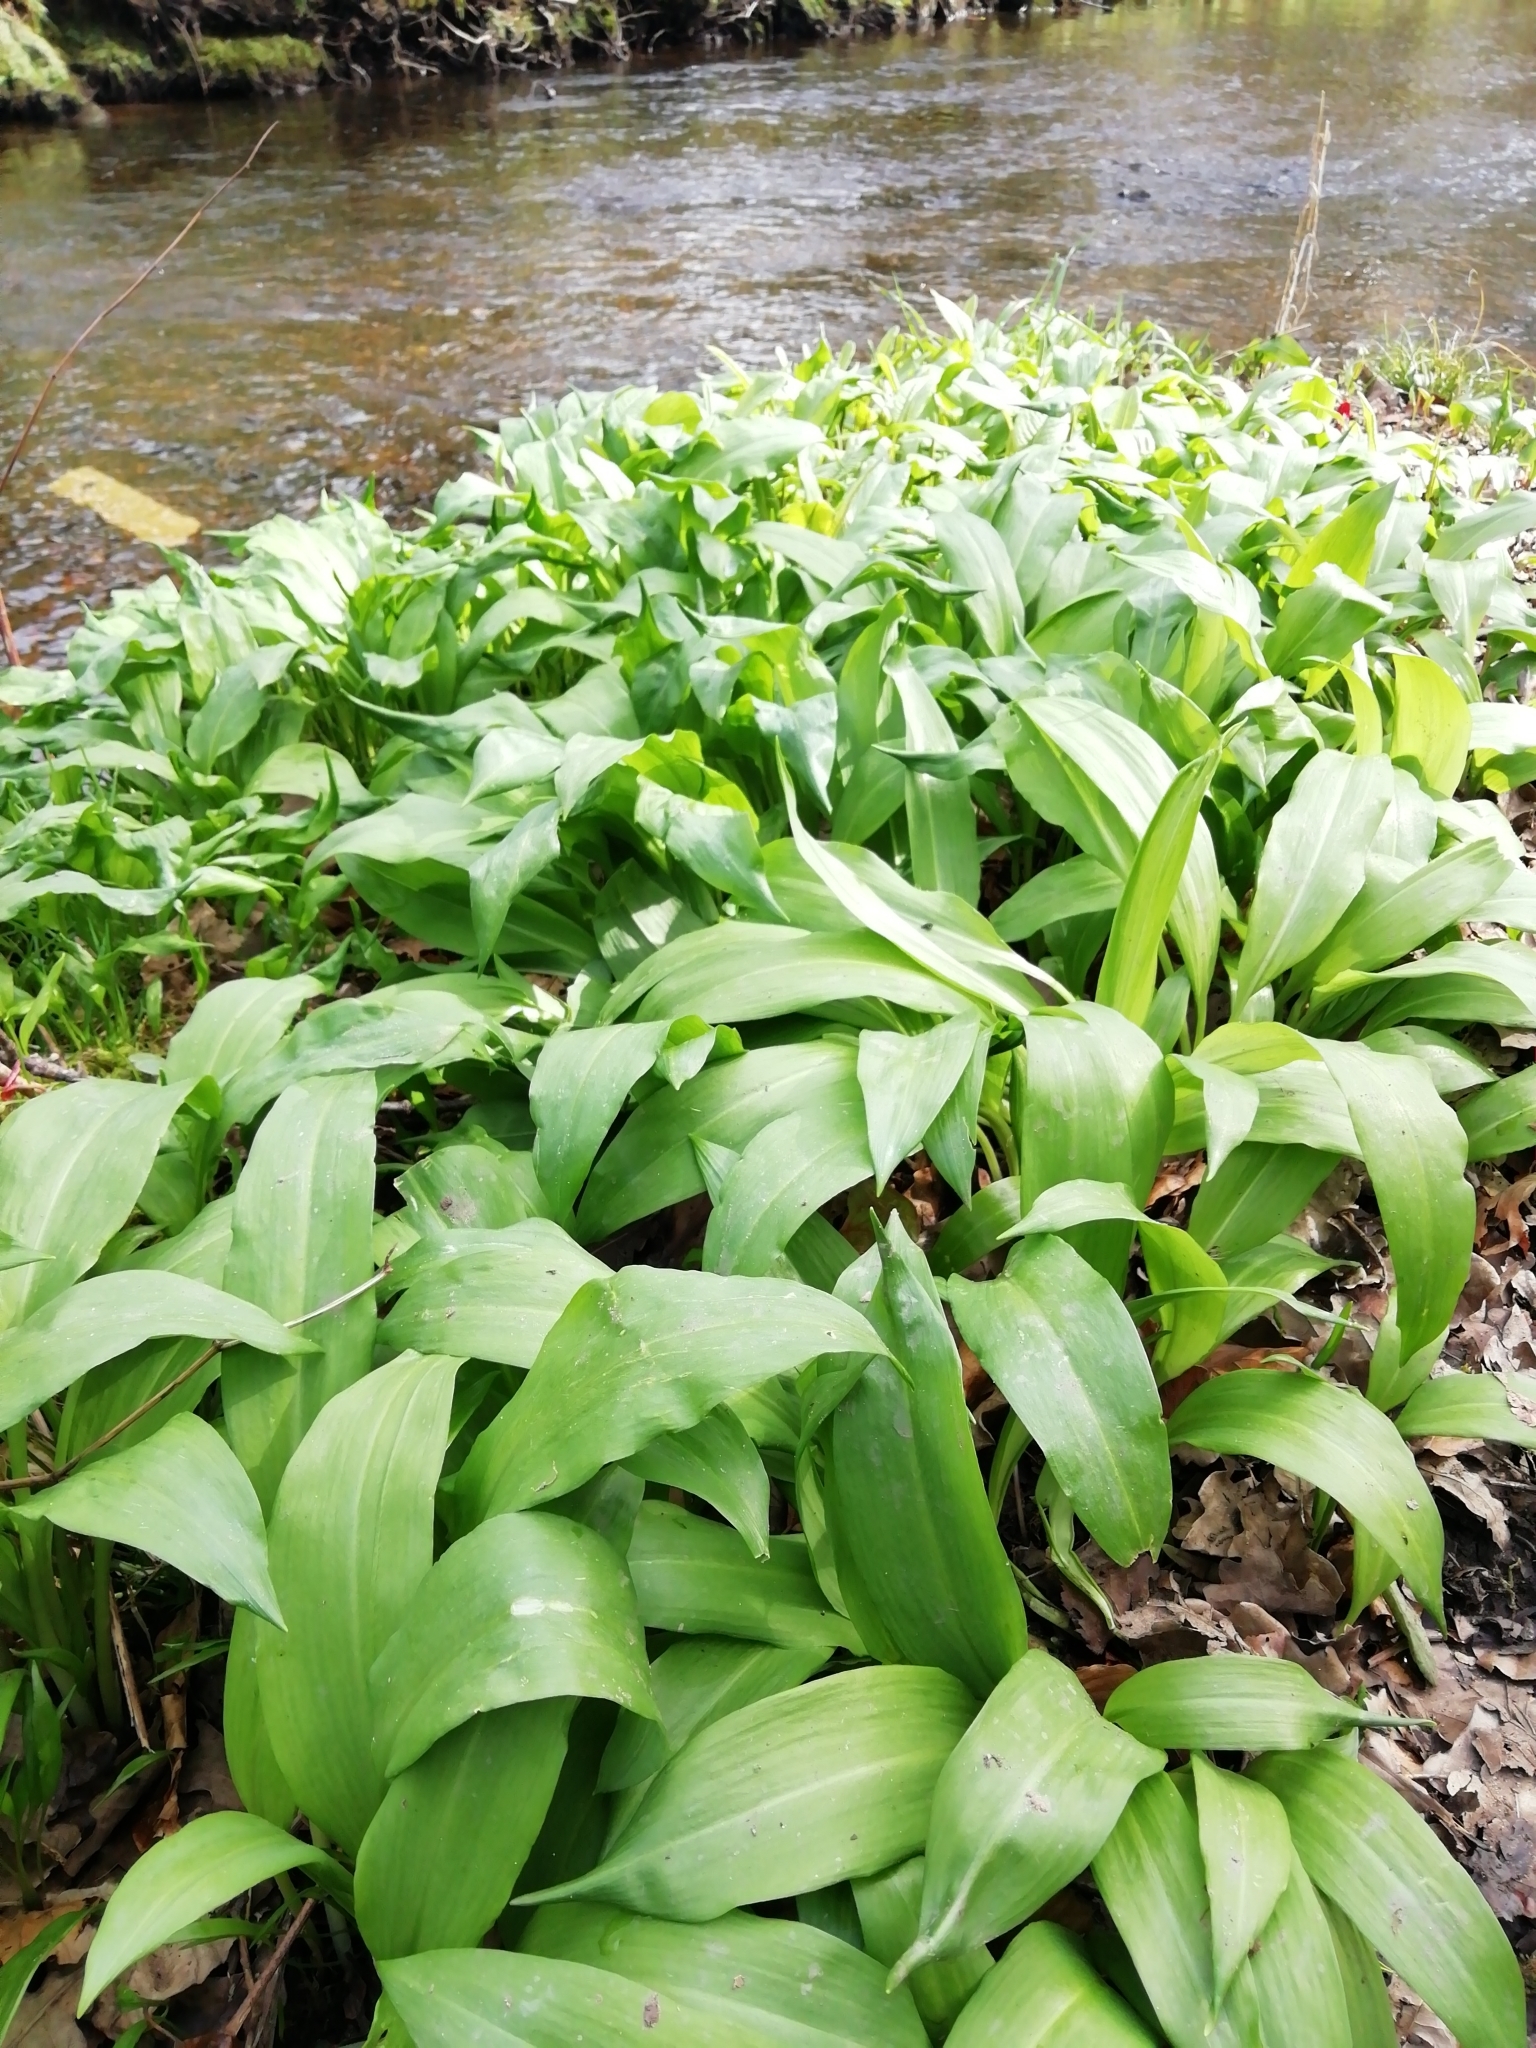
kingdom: Plantae
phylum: Tracheophyta
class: Liliopsida
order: Asparagales
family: Amaryllidaceae
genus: Allium
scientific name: Allium ursinum
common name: Ramsons
